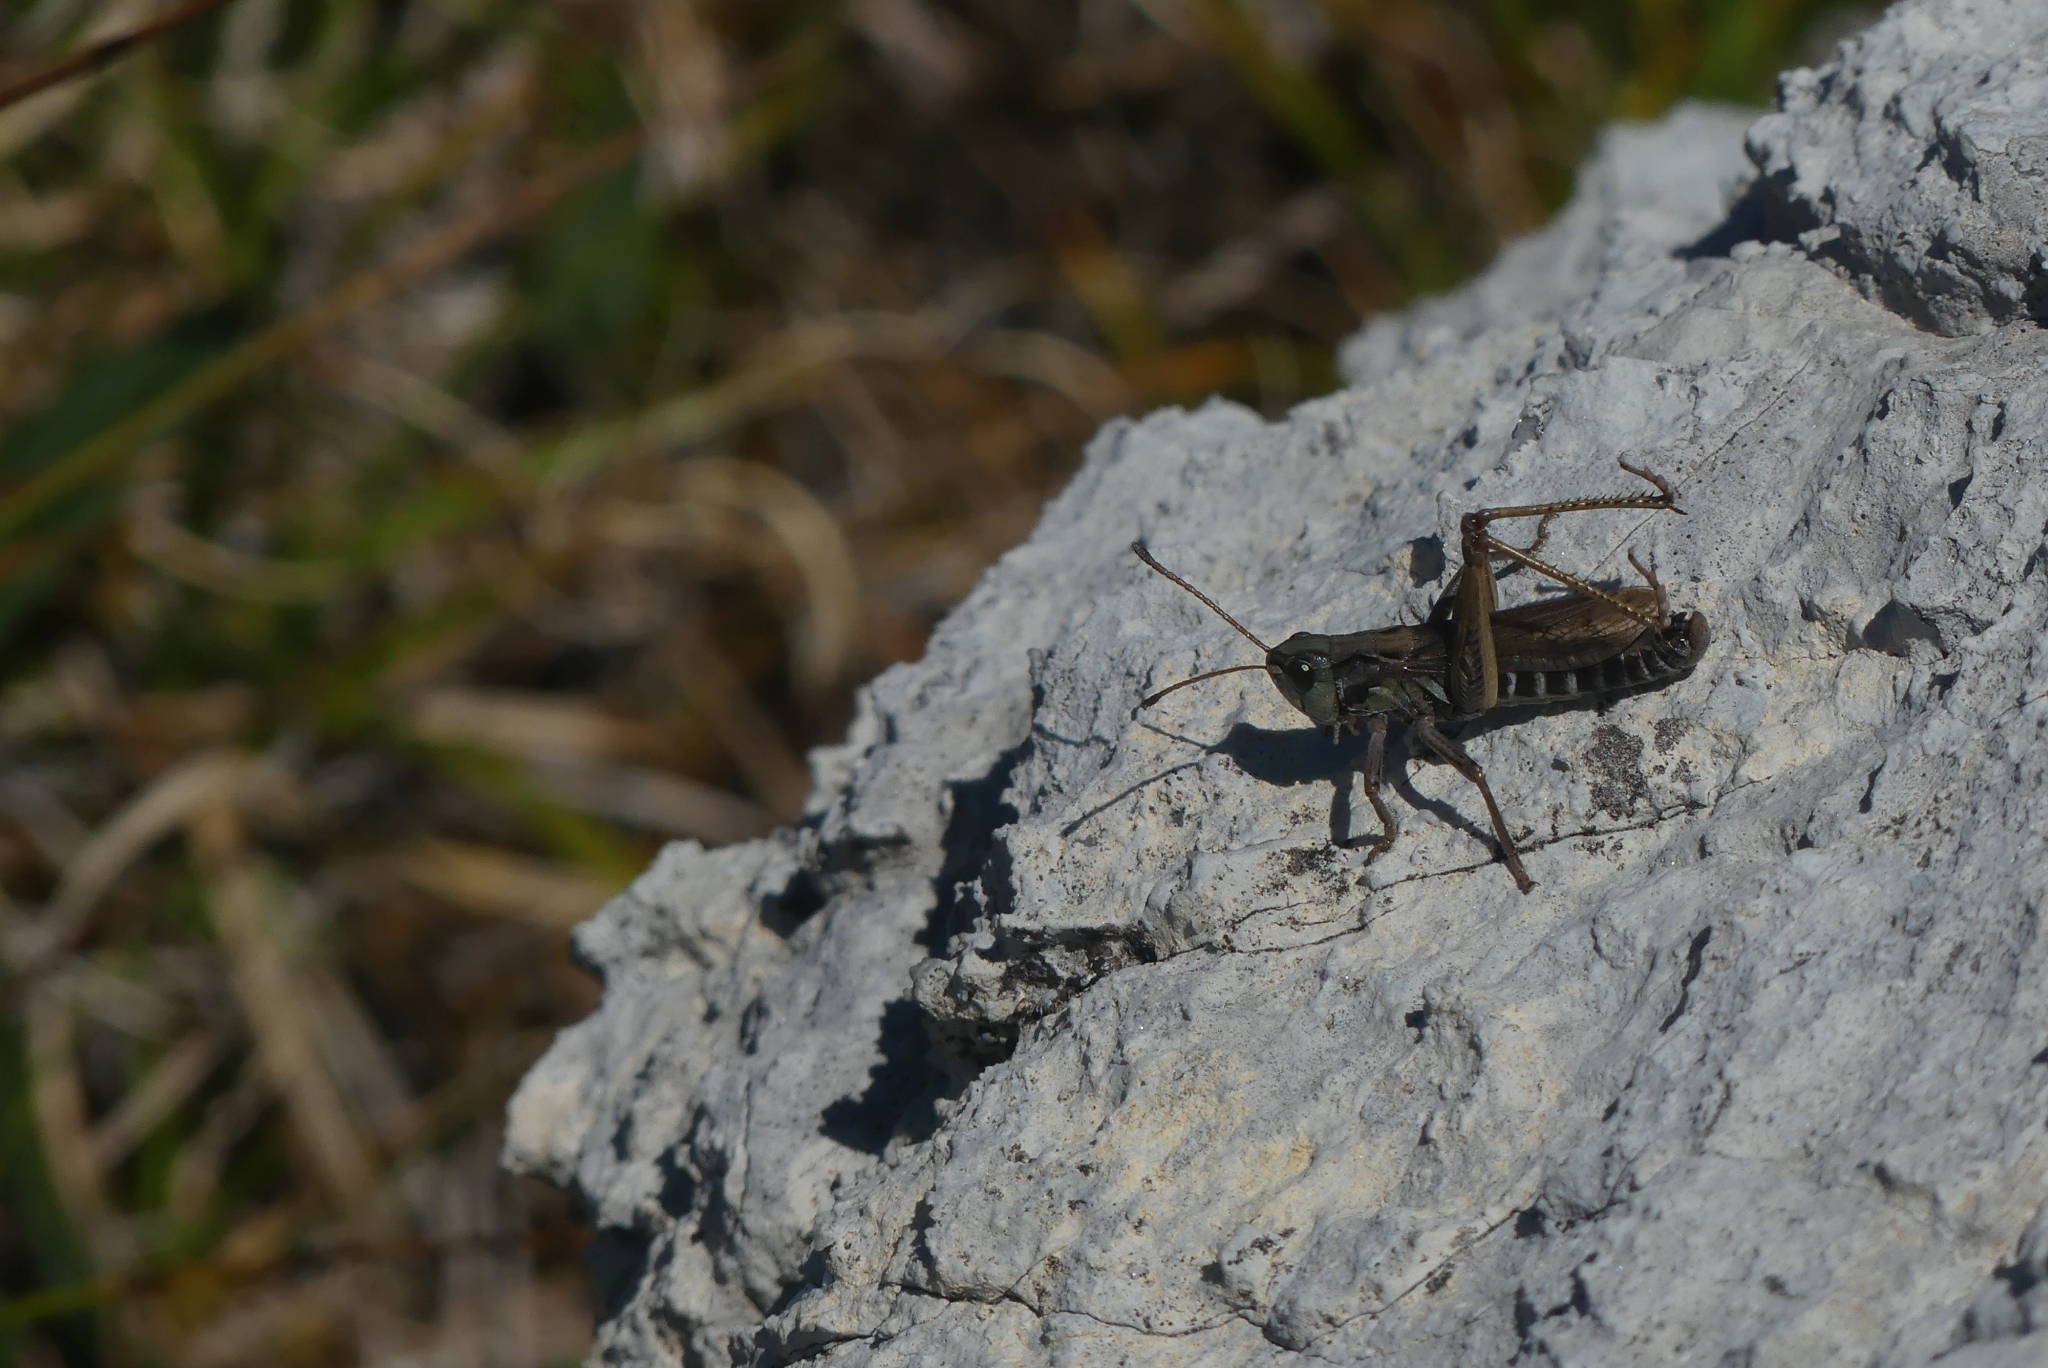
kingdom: Animalia
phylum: Arthropoda
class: Insecta
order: Orthoptera
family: Acrididae
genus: Aeropedellus
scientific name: Aeropedellus clavatus
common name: Clubhorned grasshopper
